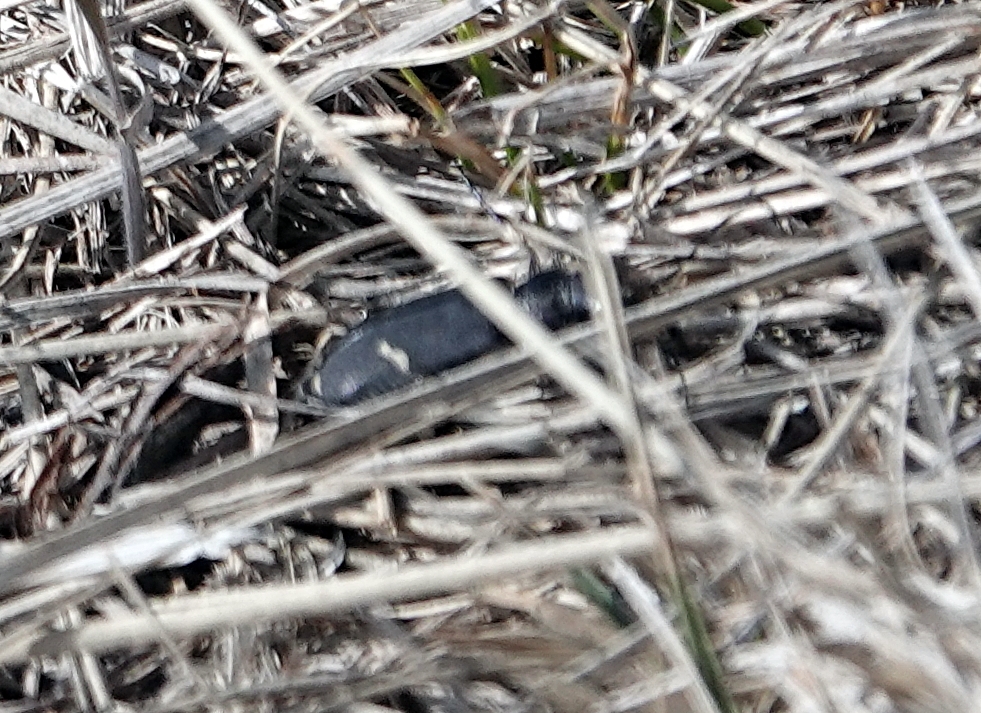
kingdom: Animalia
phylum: Arthropoda
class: Insecta
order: Coleoptera
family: Carabidae
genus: Cicindela
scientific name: Cicindela purpurea
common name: Cow path tiger beetle
